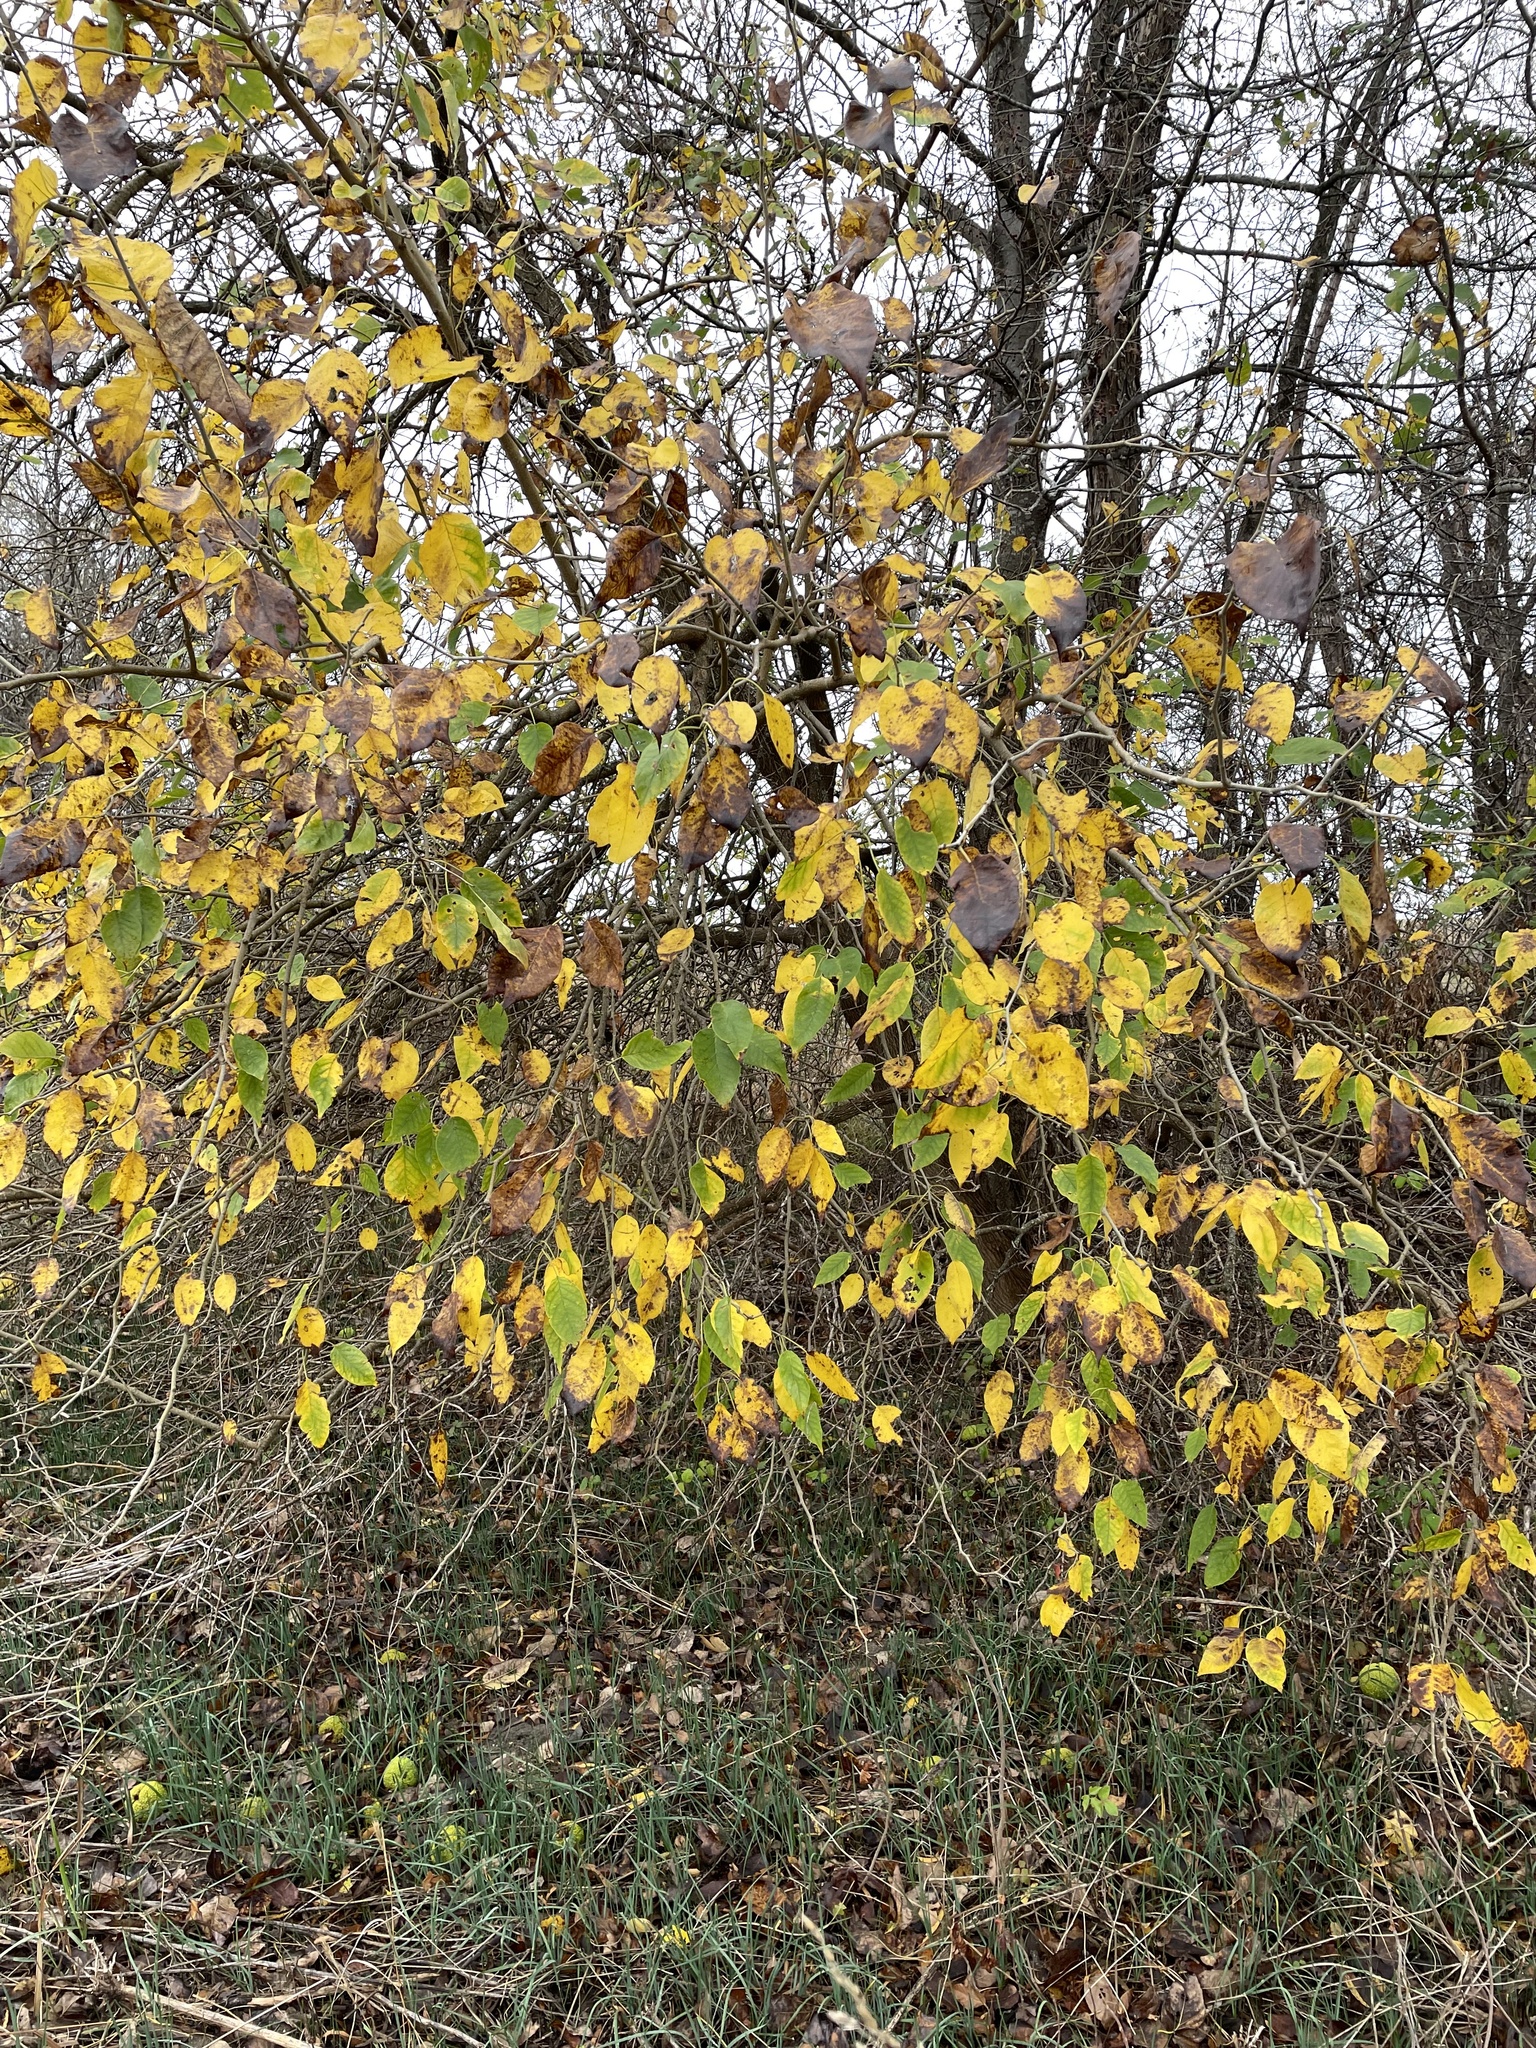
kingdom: Plantae
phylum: Tracheophyta
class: Magnoliopsida
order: Rosales
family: Moraceae
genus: Maclura
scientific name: Maclura pomifera
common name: Osage-orange
